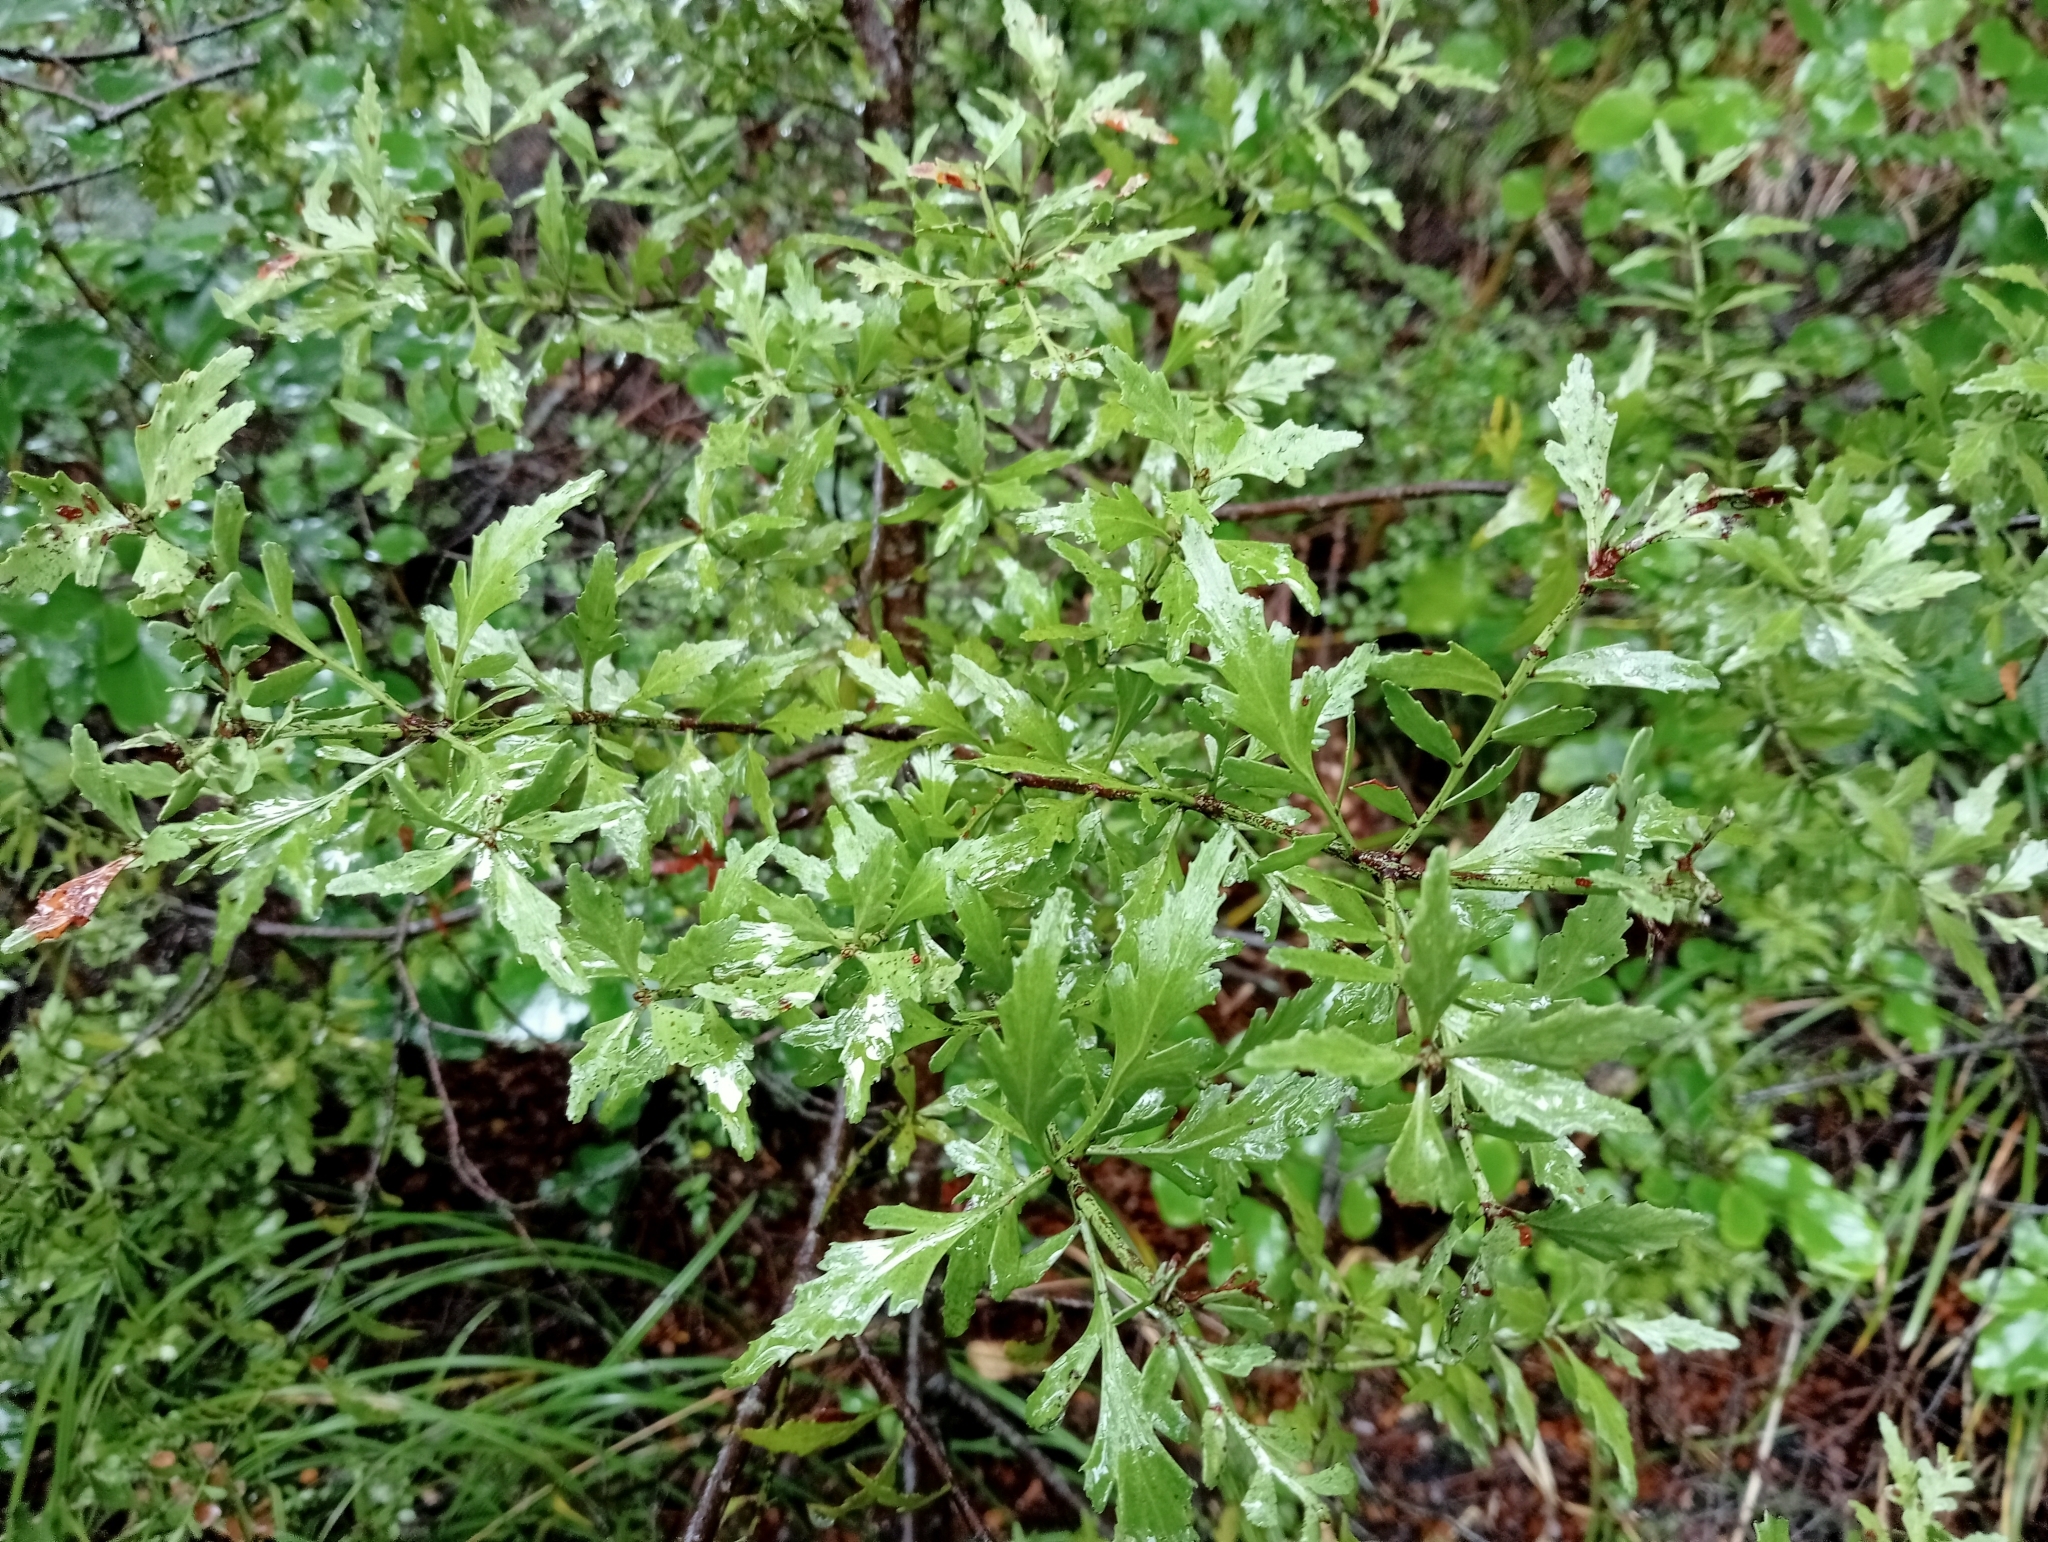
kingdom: Plantae
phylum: Tracheophyta
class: Pinopsida
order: Pinales
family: Phyllocladaceae
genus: Phyllocladus
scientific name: Phyllocladus trichomanoides
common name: Celery pine
